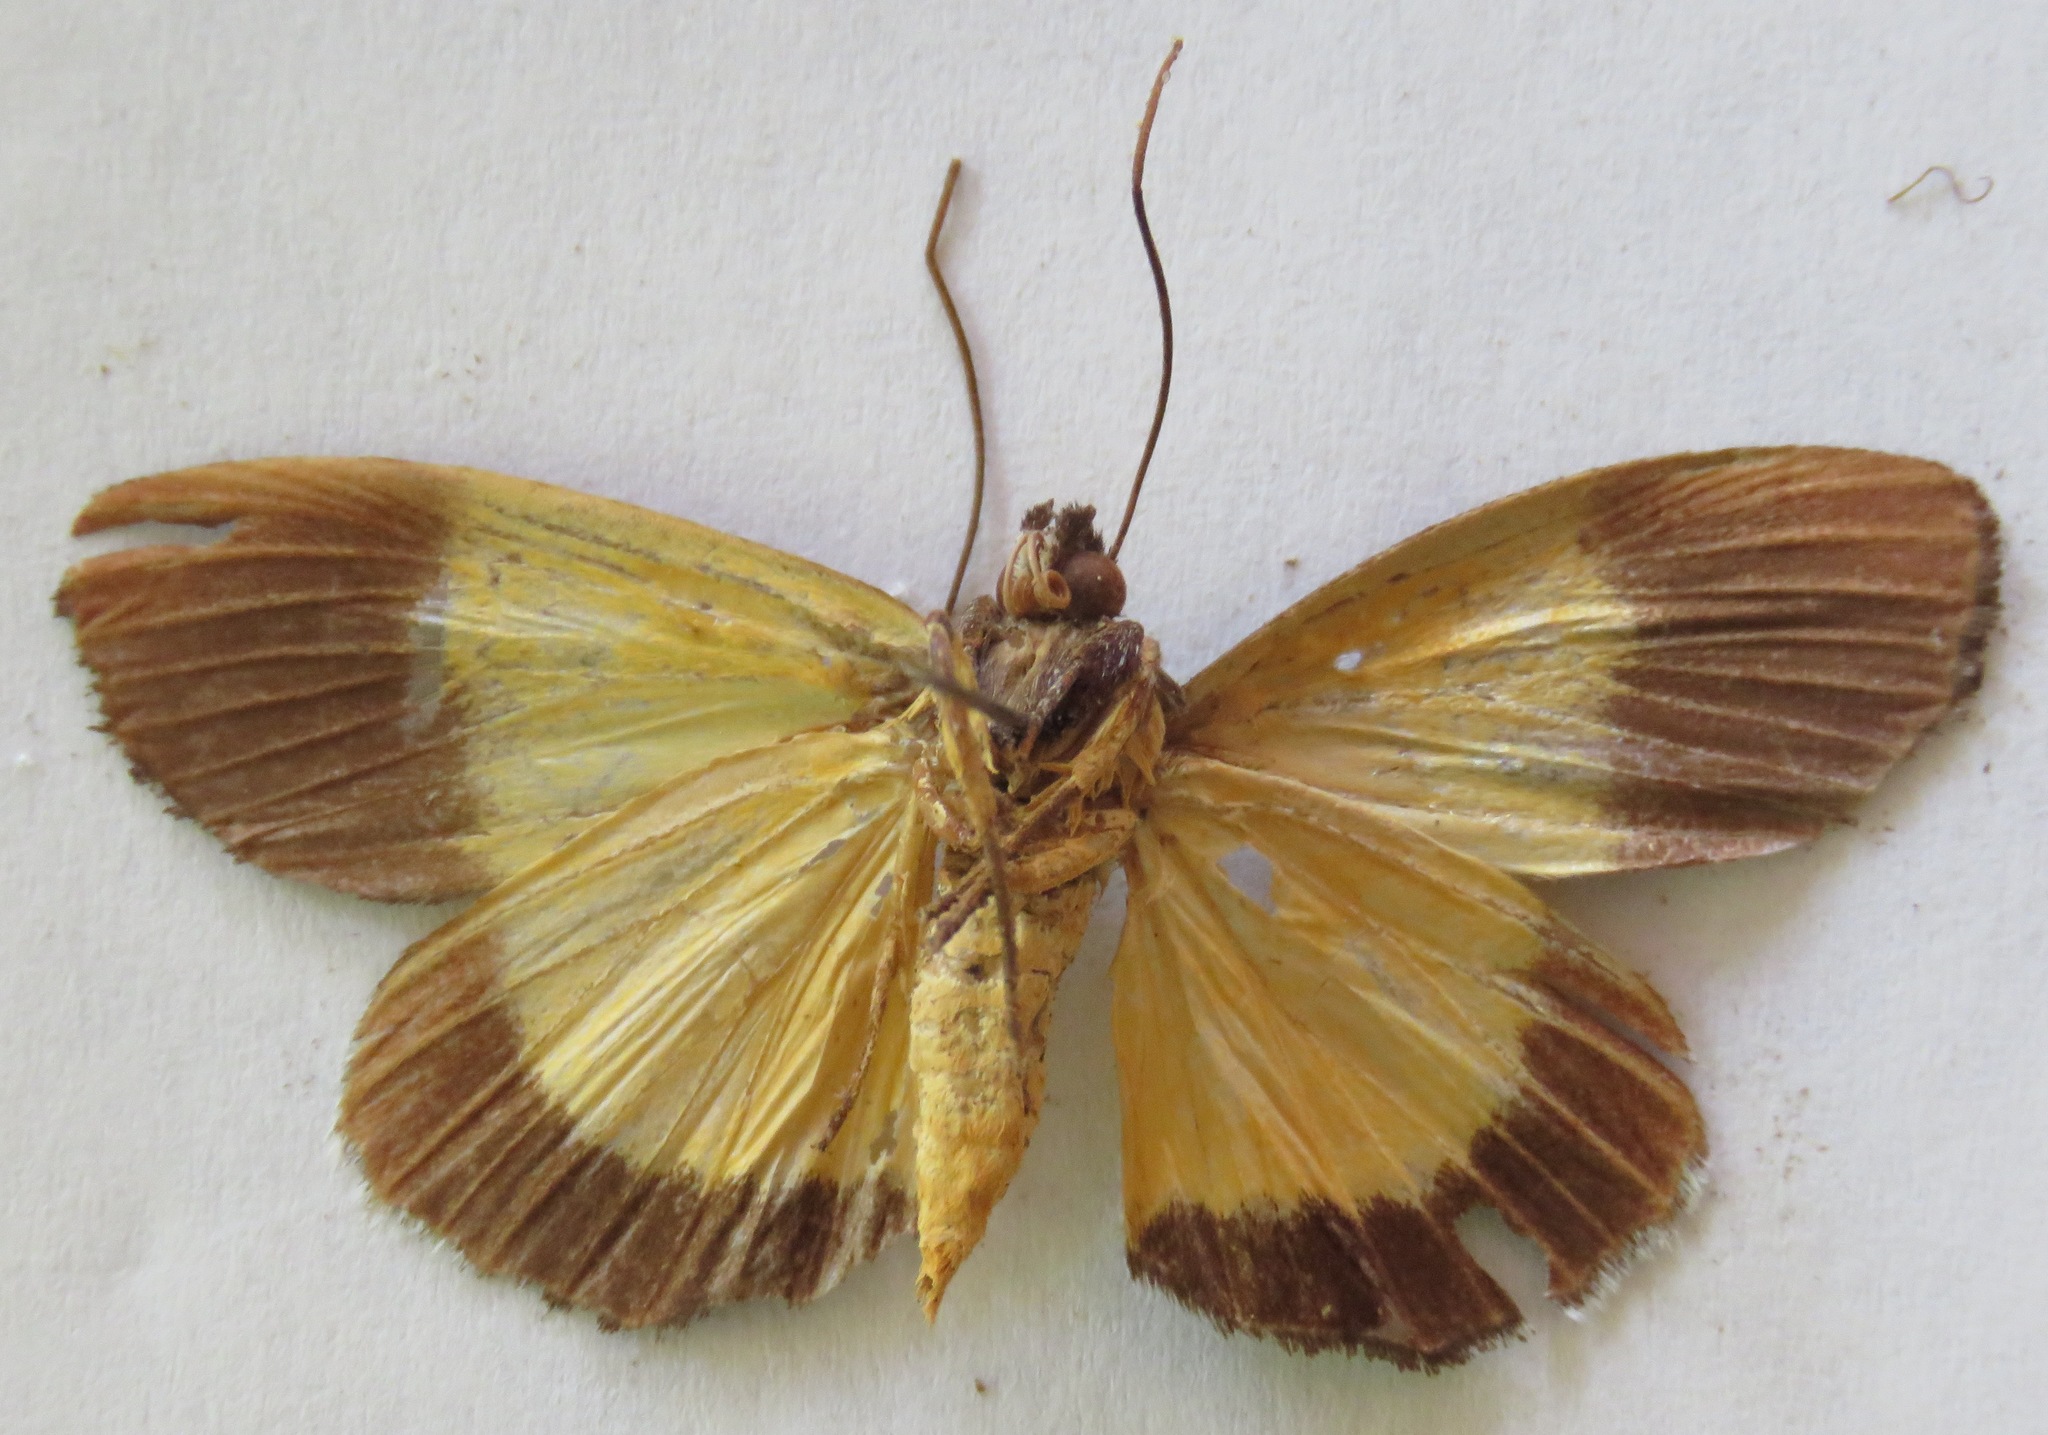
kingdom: Animalia
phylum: Arthropoda
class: Insecta
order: Lepidoptera
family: Noctuidae
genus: Darceta
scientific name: Darceta falcata
